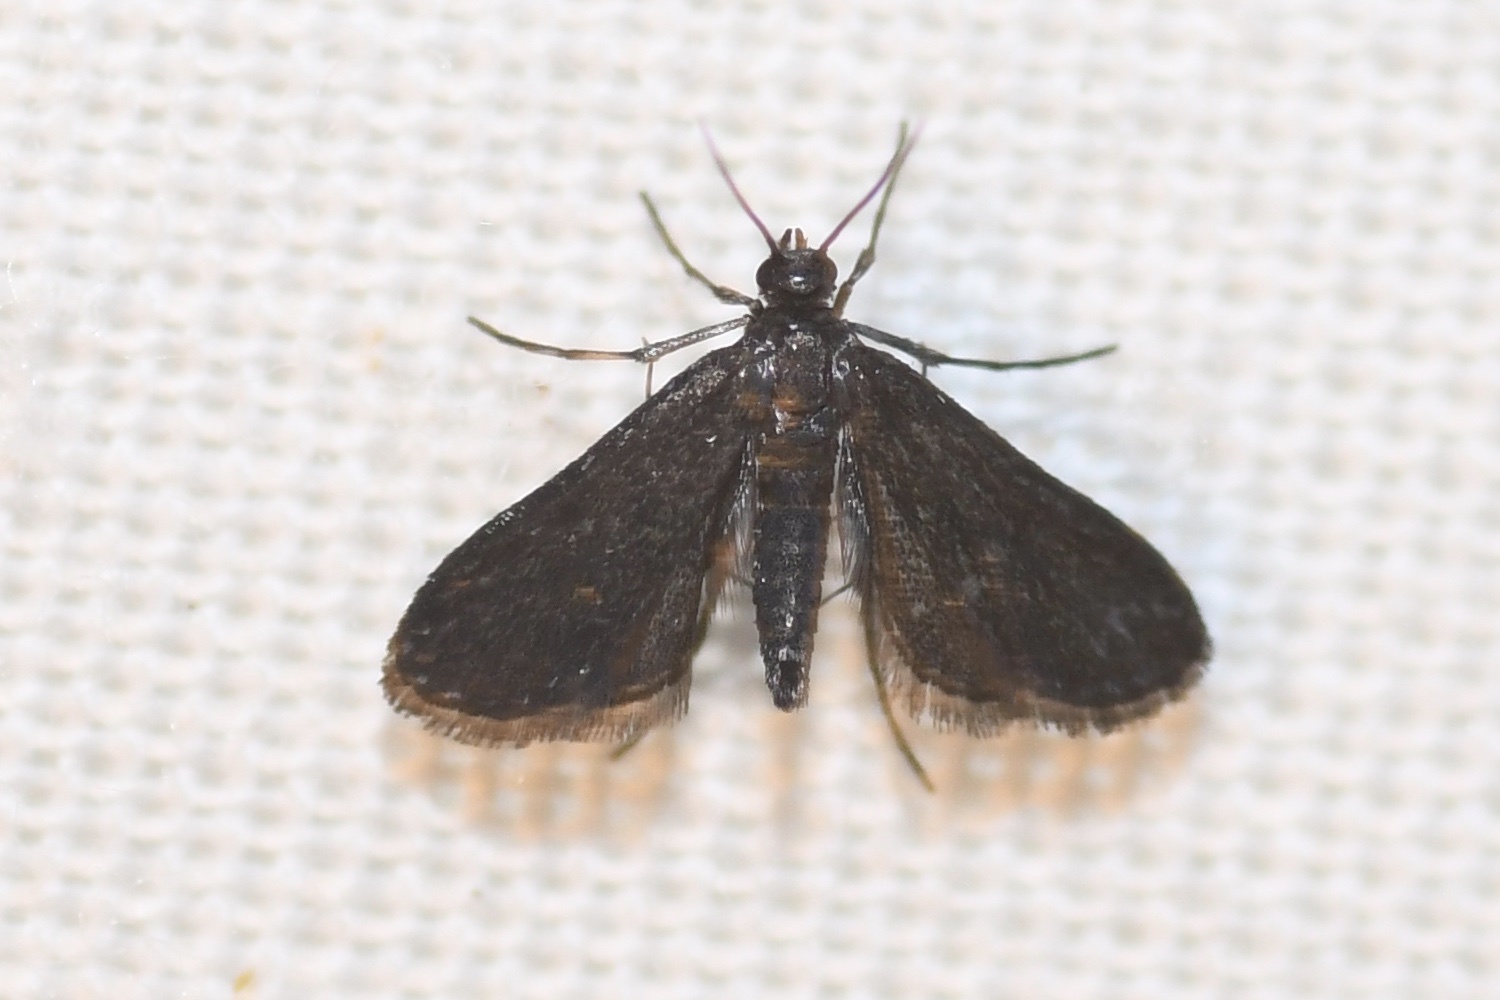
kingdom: Animalia
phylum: Arthropoda
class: Insecta
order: Lepidoptera
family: Crambidae
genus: Elophila
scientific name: Elophila tinealis
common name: Black duckweed moth
